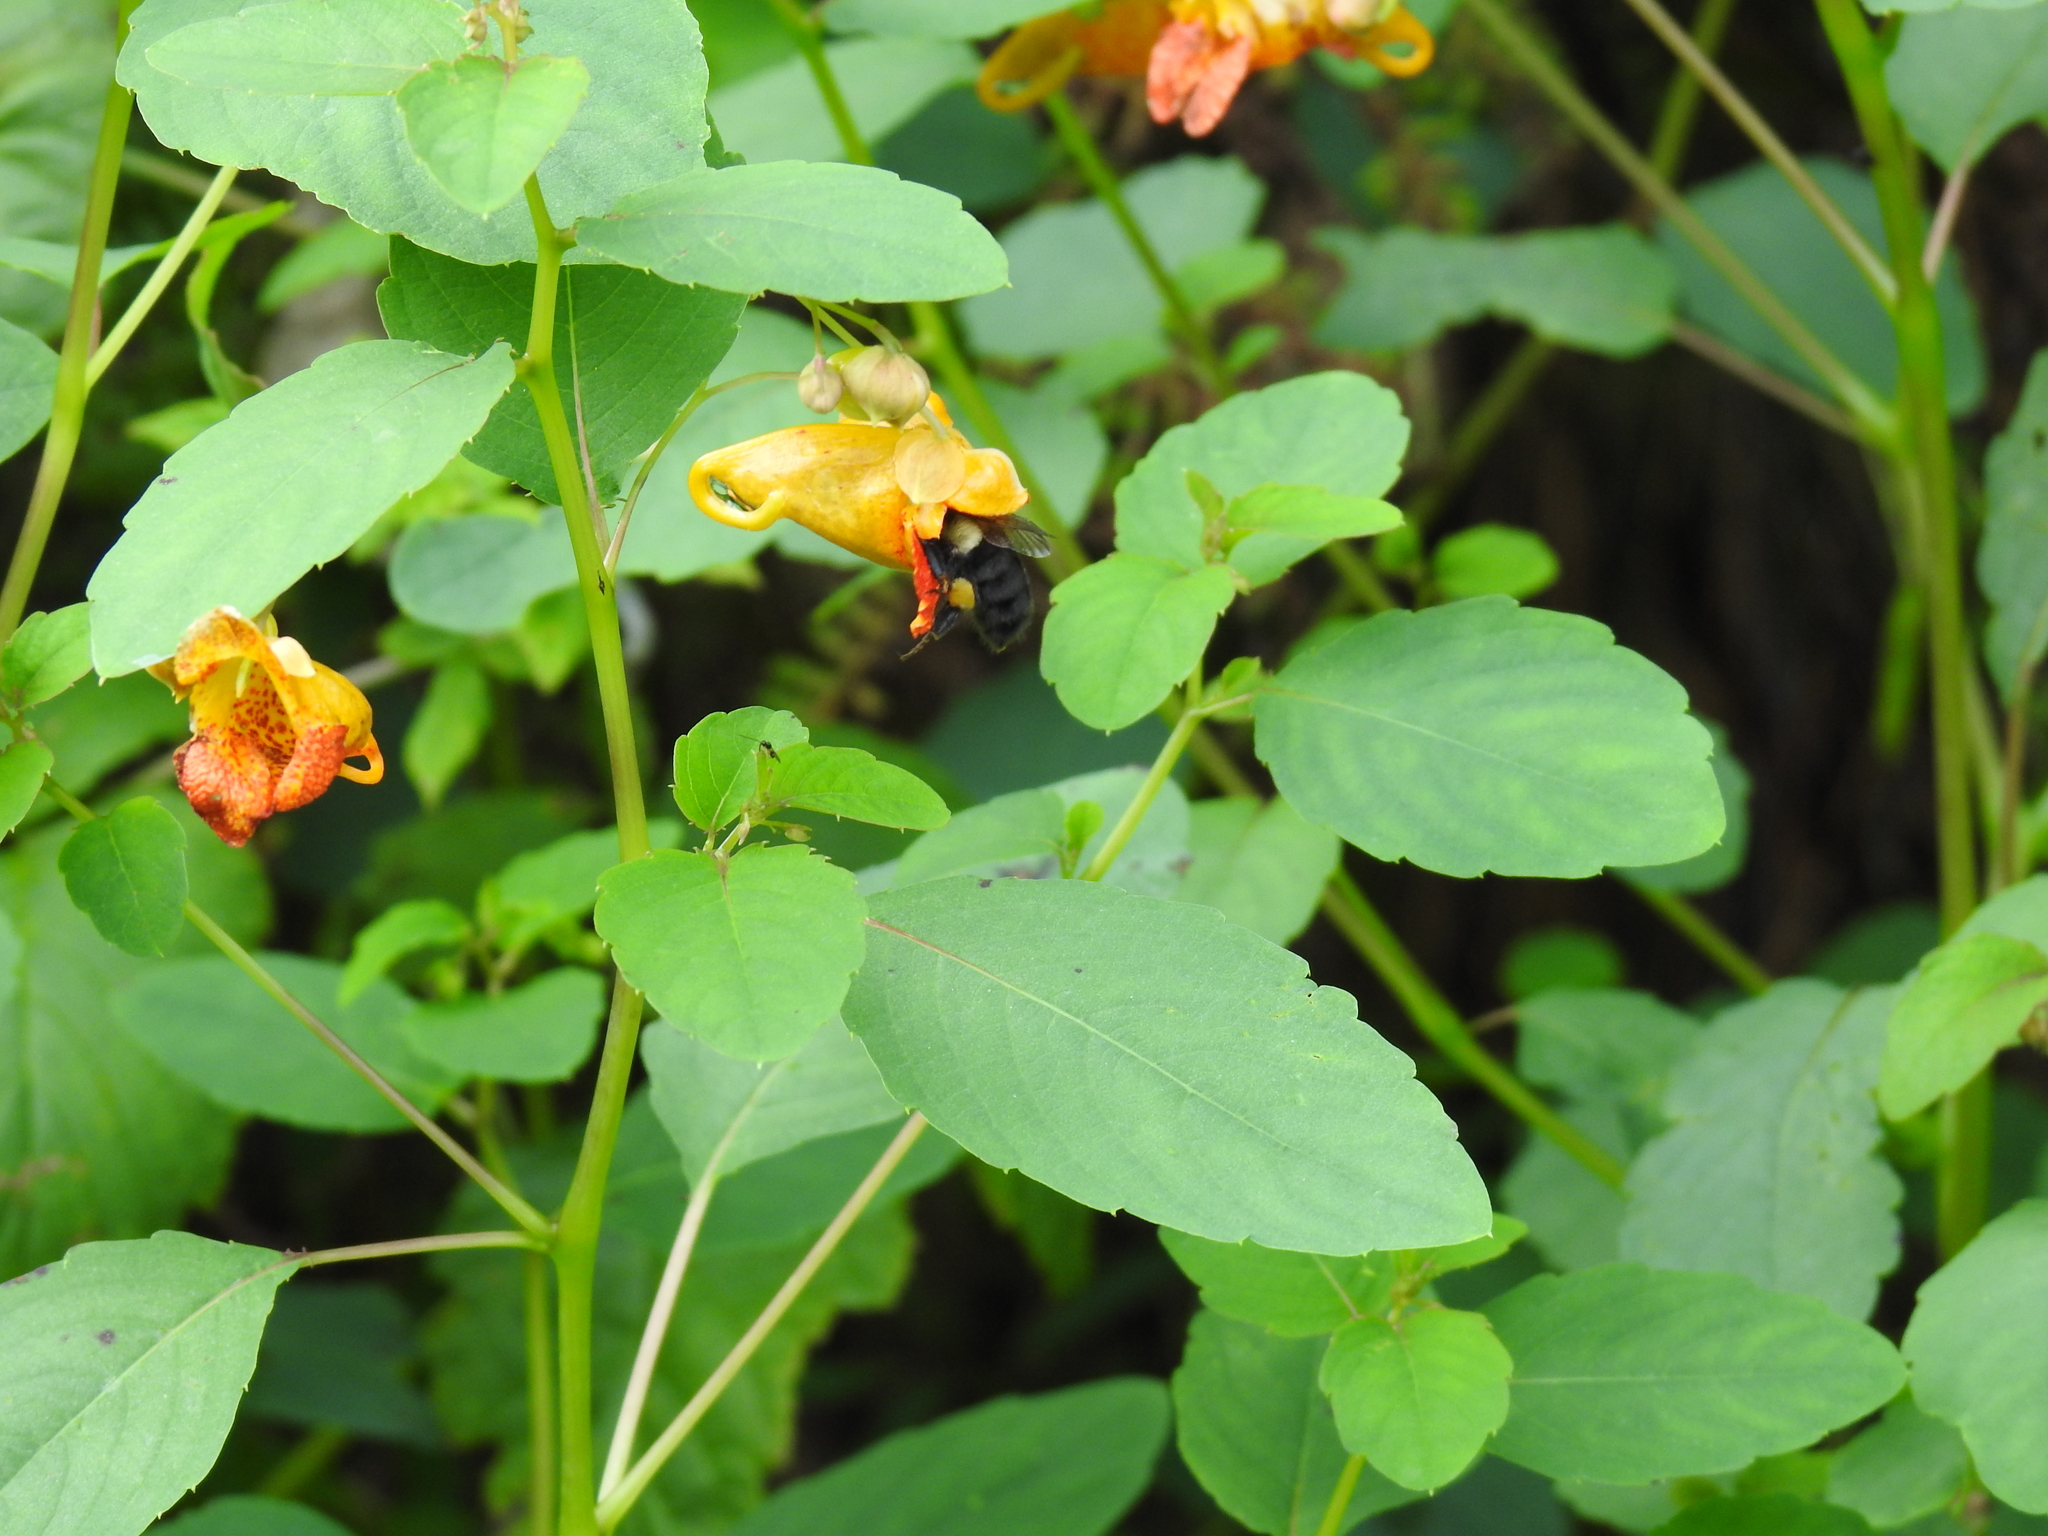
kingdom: Plantae
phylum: Tracheophyta
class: Magnoliopsida
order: Ericales
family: Balsaminaceae
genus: Impatiens
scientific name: Impatiens capensis
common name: Orange balsam
